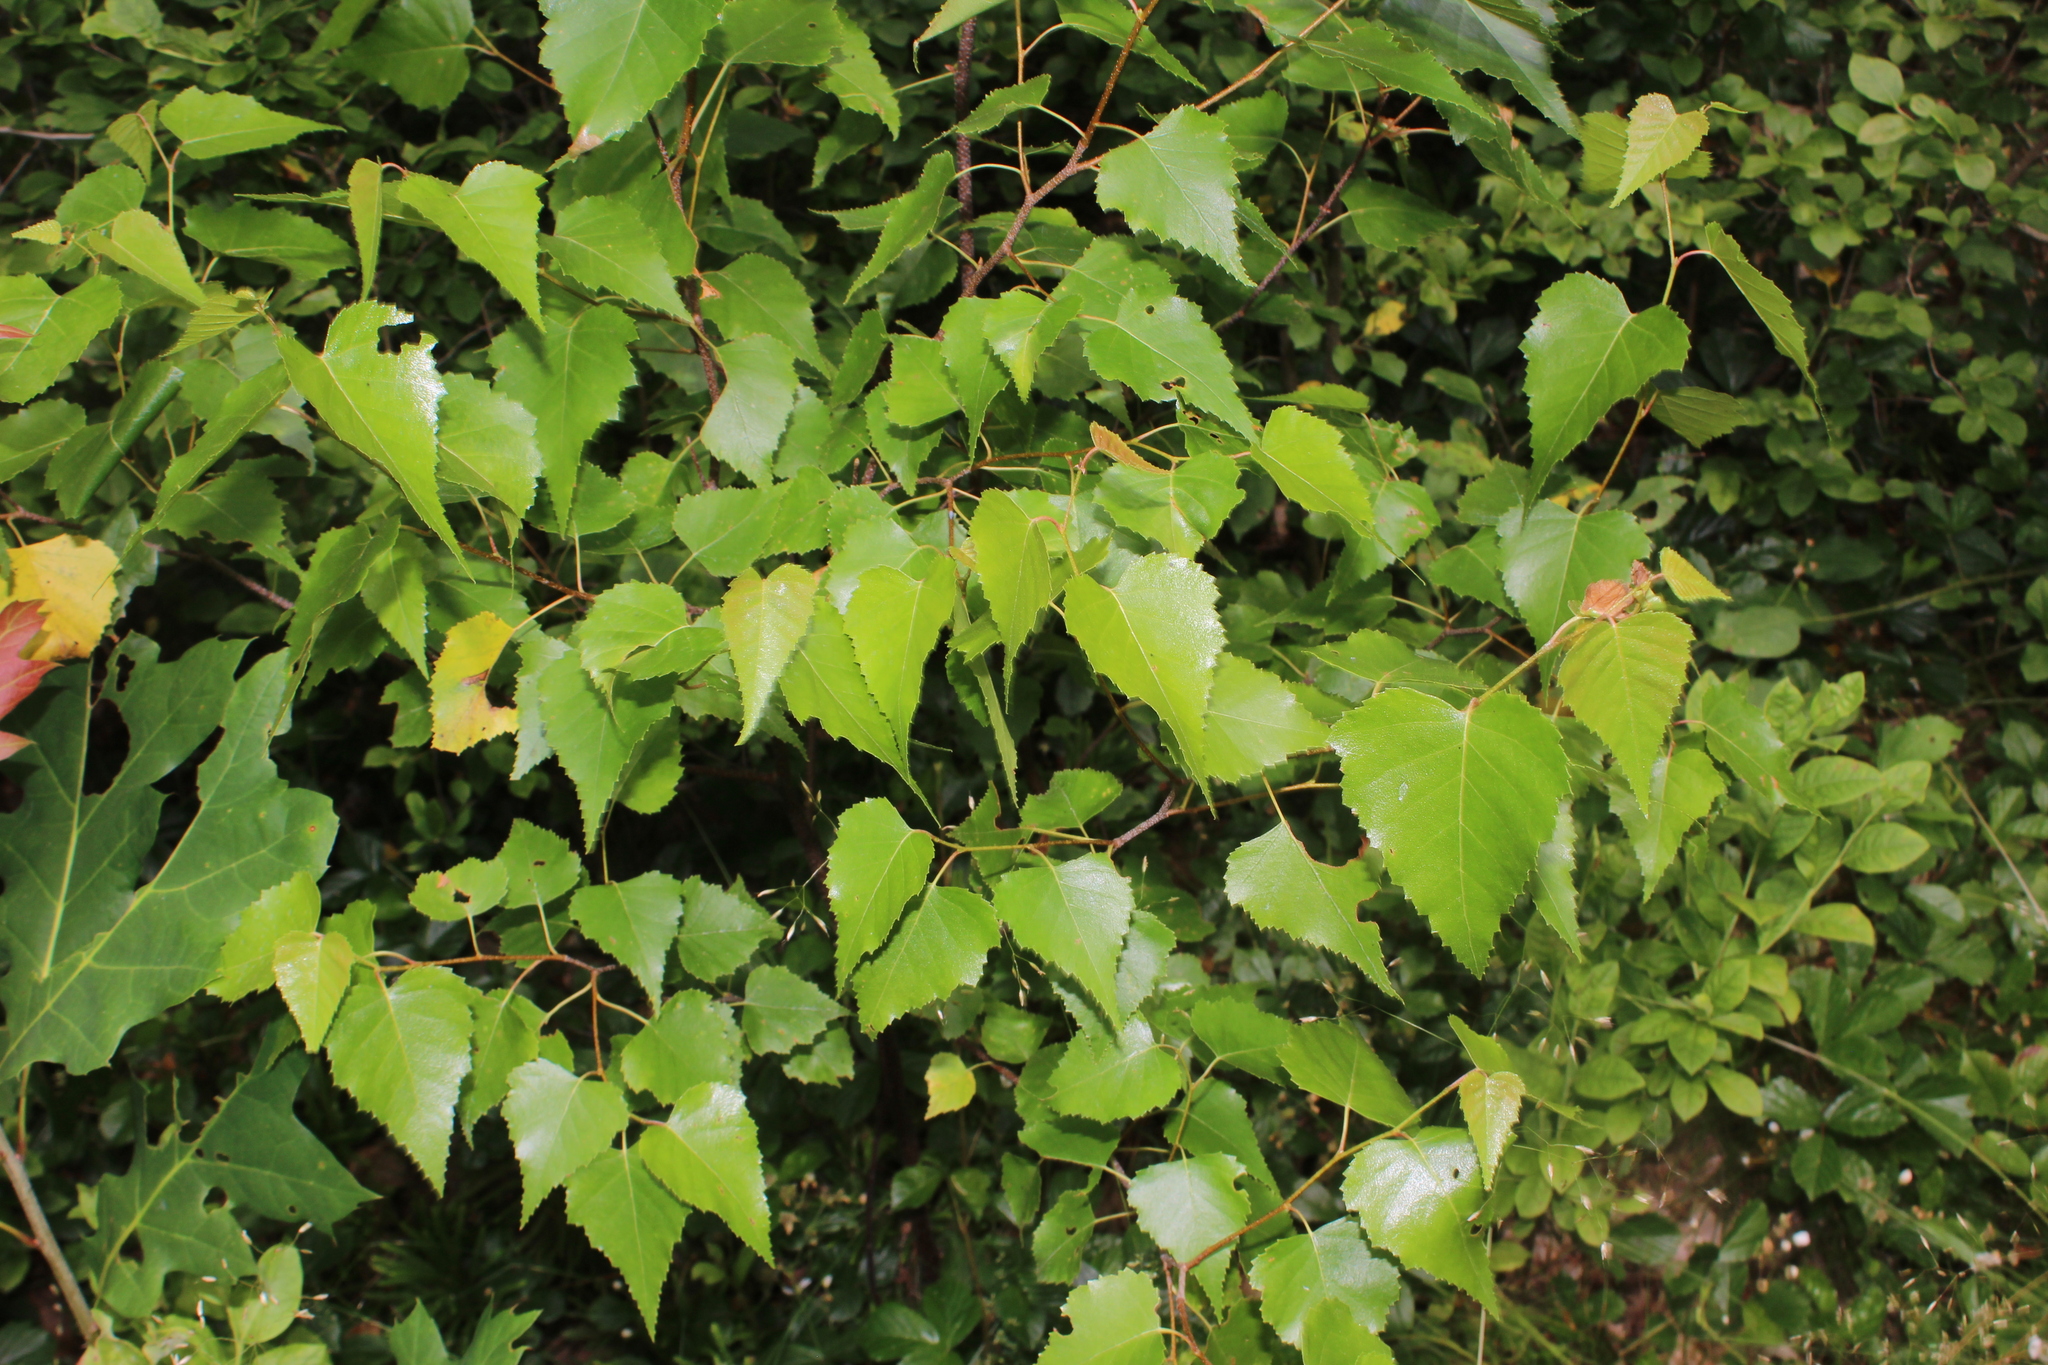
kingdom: Plantae
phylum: Tracheophyta
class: Magnoliopsida
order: Fagales
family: Betulaceae
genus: Betula
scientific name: Betula populifolia
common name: Fire birch
